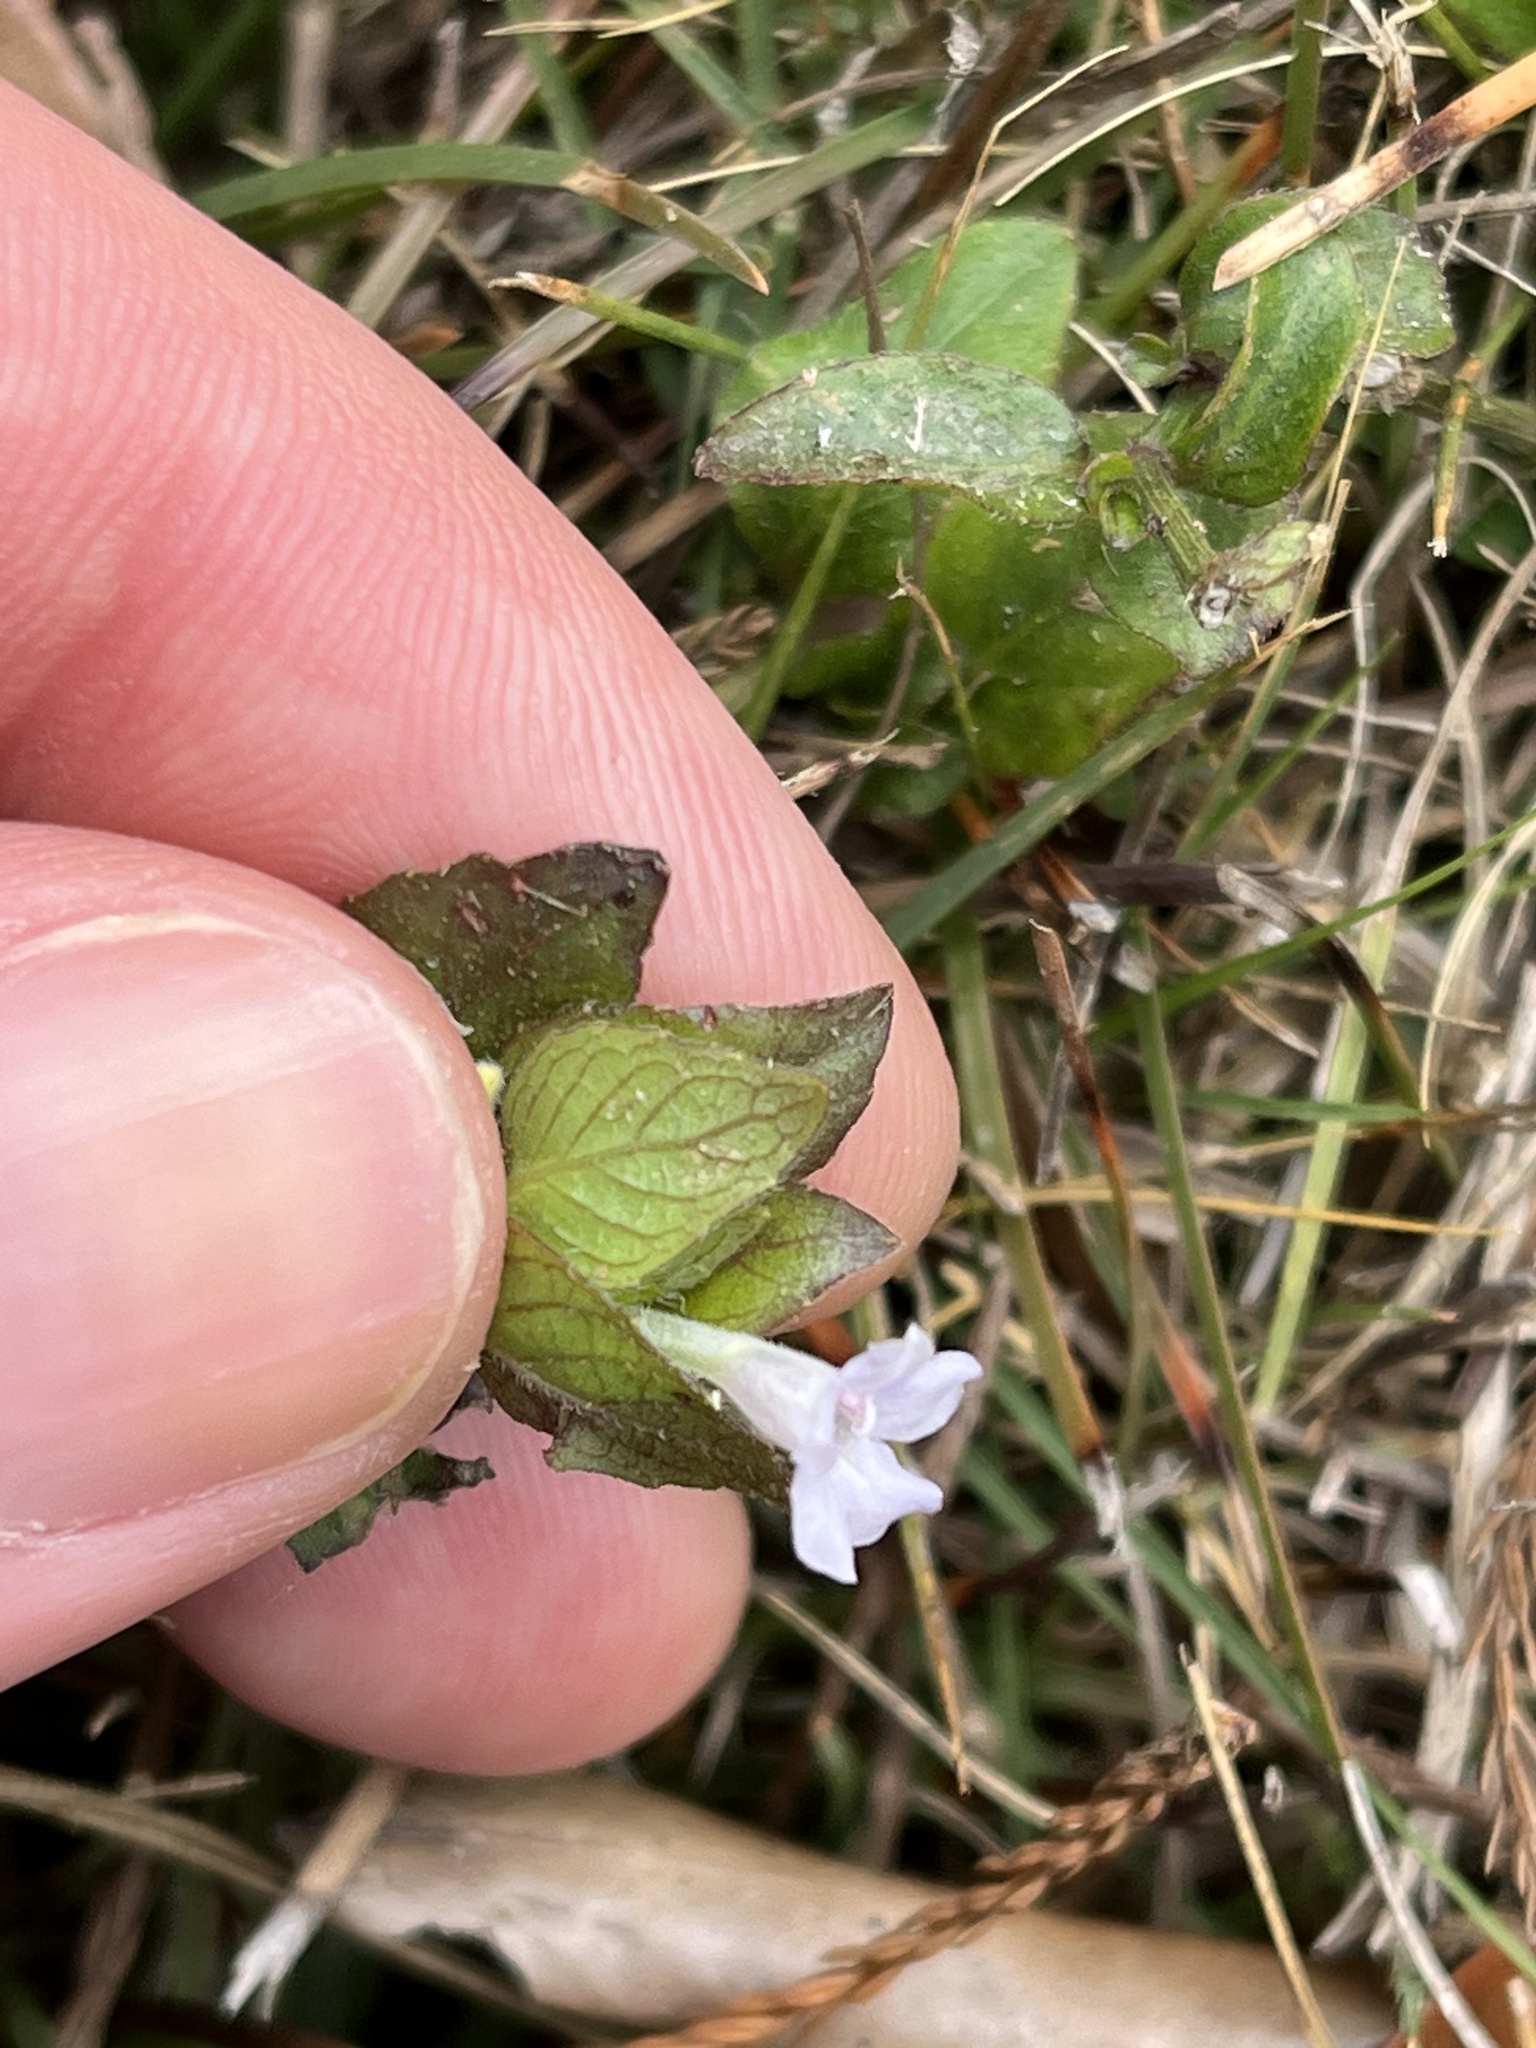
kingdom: Plantae
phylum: Tracheophyta
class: Magnoliopsida
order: Lamiales
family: Acanthaceae
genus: Ruellia
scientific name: Ruellia blechum
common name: Browne's blechum
